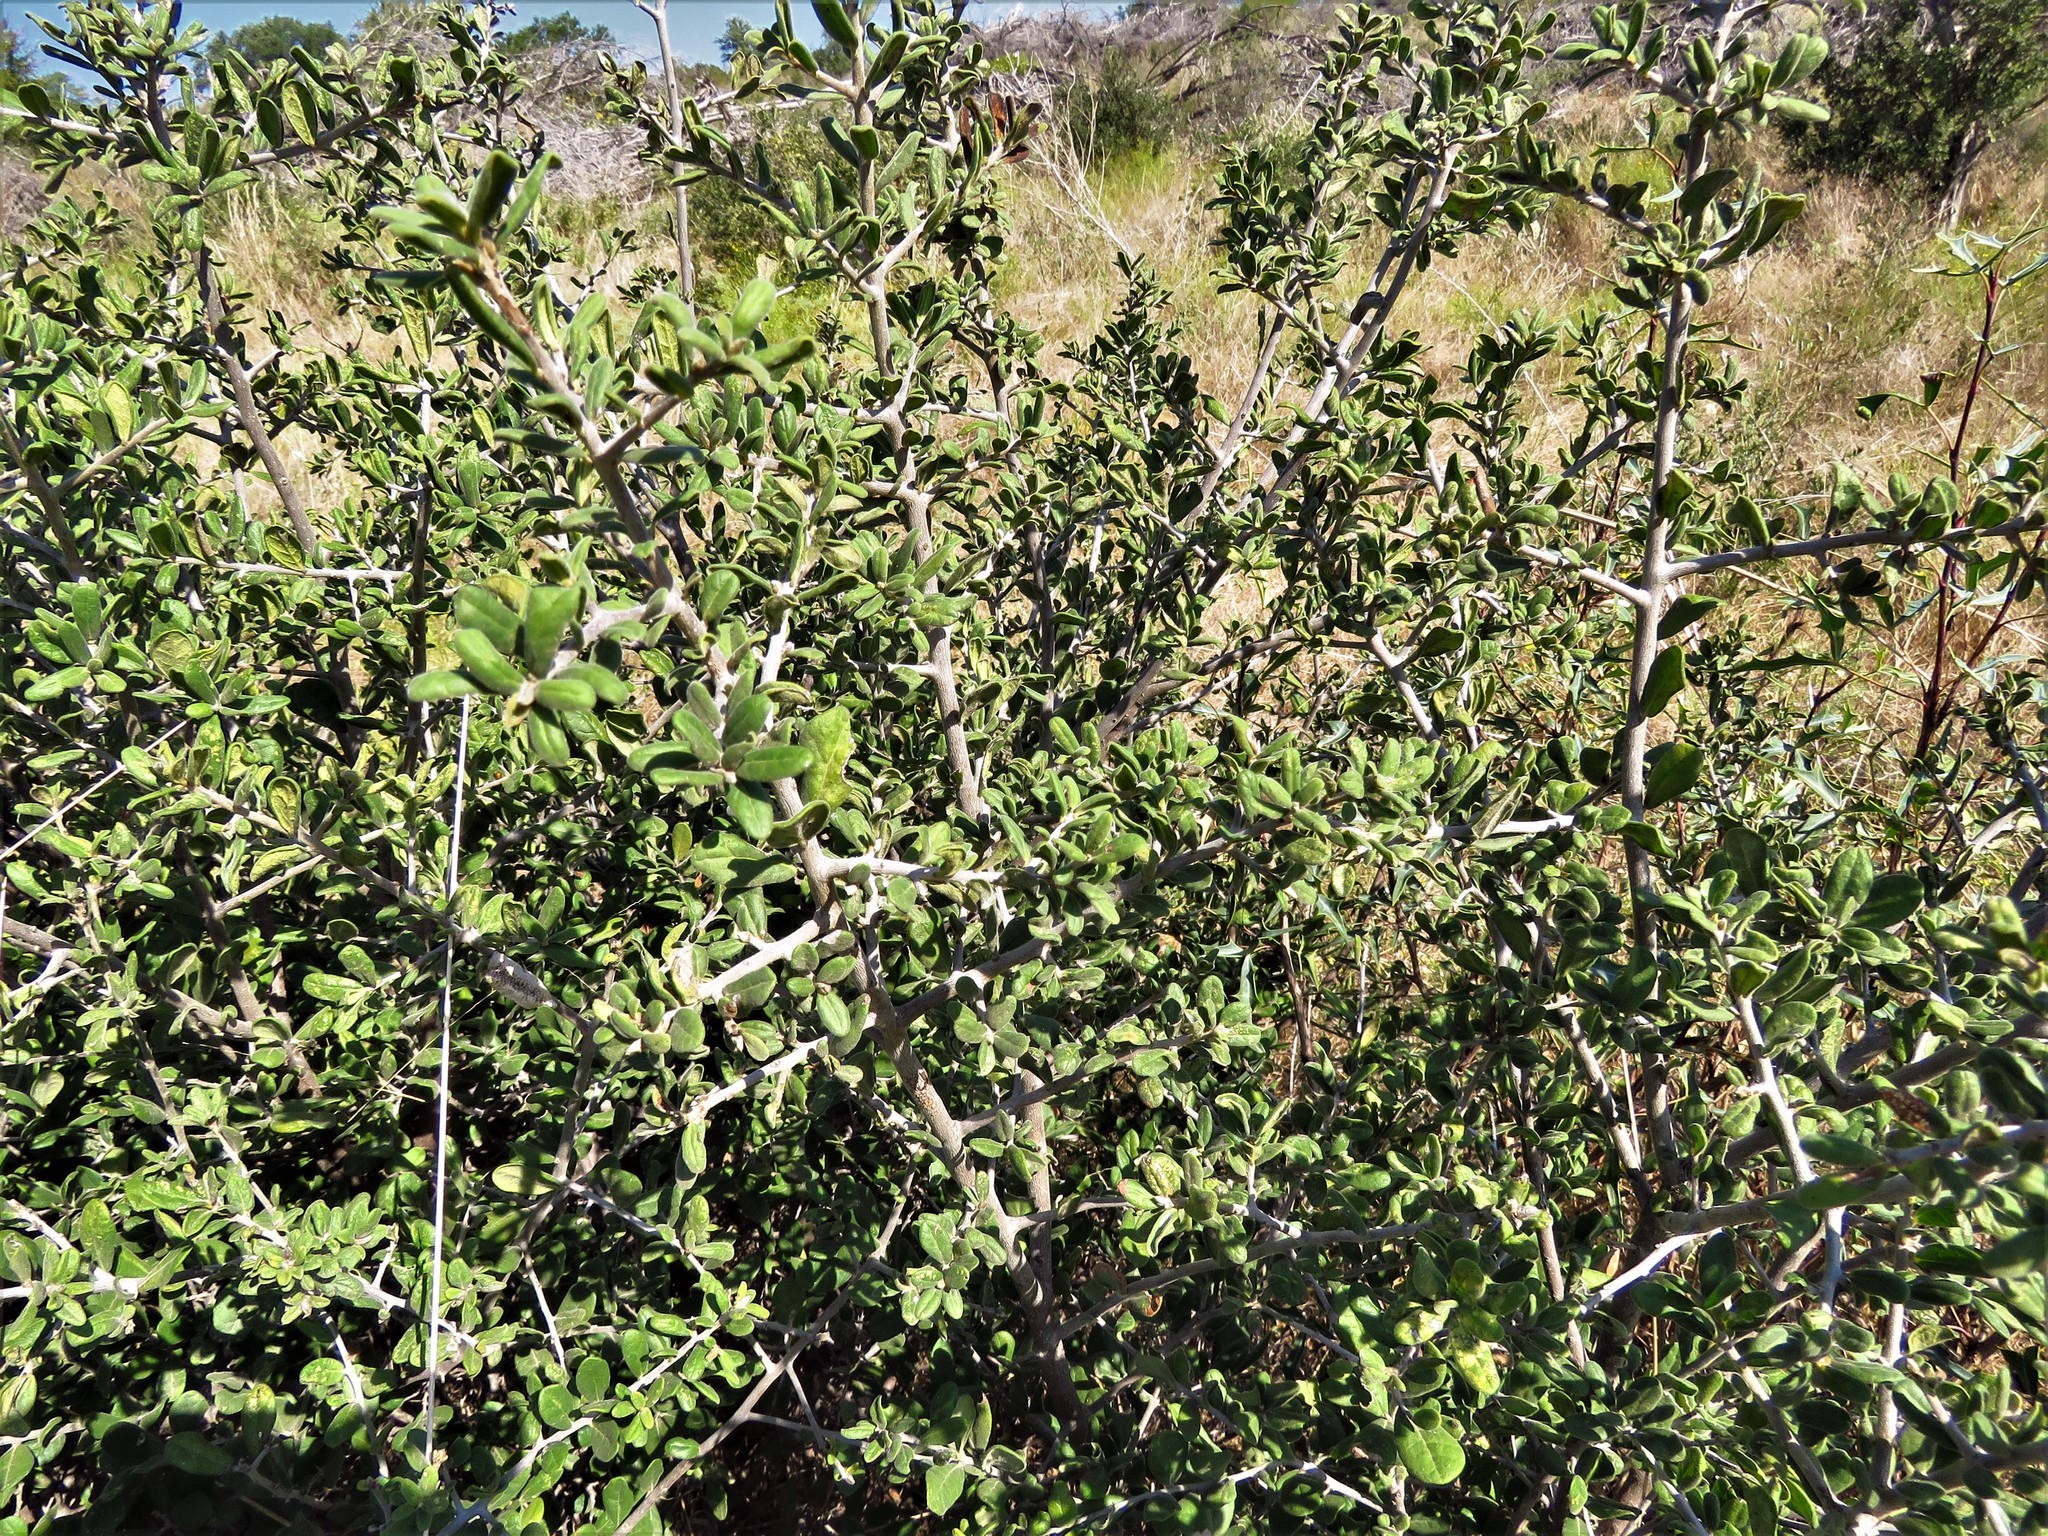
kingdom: Plantae
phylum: Tracheophyta
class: Magnoliopsida
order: Ericales
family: Ebenaceae
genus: Diospyros
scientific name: Diospyros texana
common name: Texas persimmon
